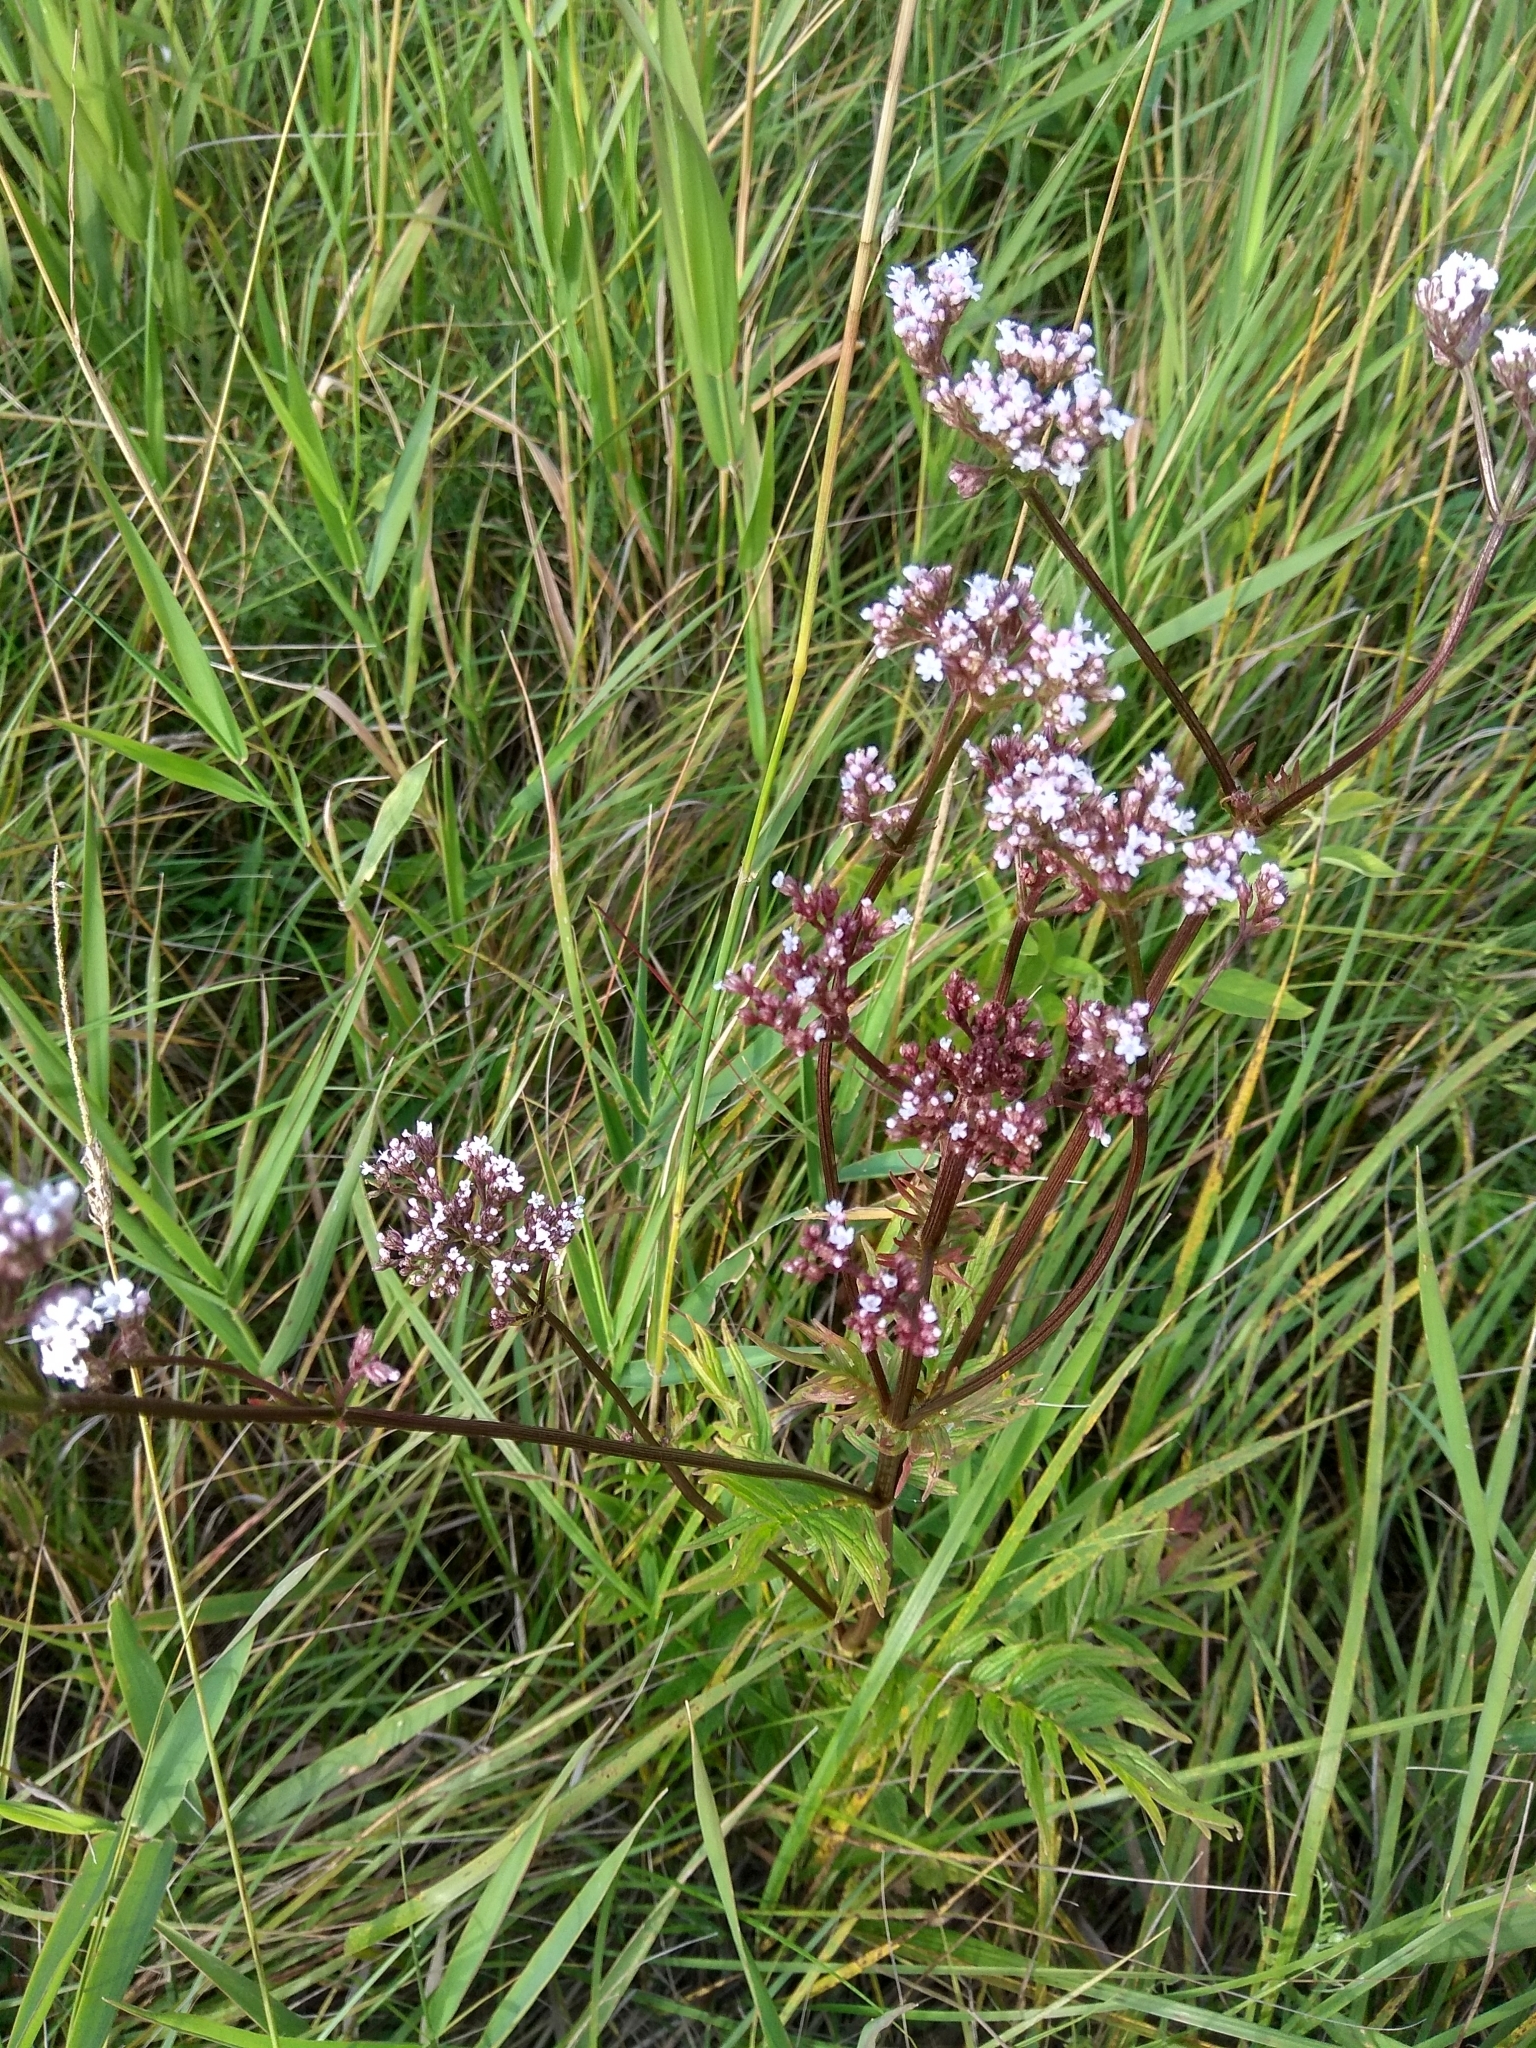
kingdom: Plantae
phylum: Tracheophyta
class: Magnoliopsida
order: Dipsacales
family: Caprifoliaceae
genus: Valeriana
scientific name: Valeriana officinalis
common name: Common valerian
